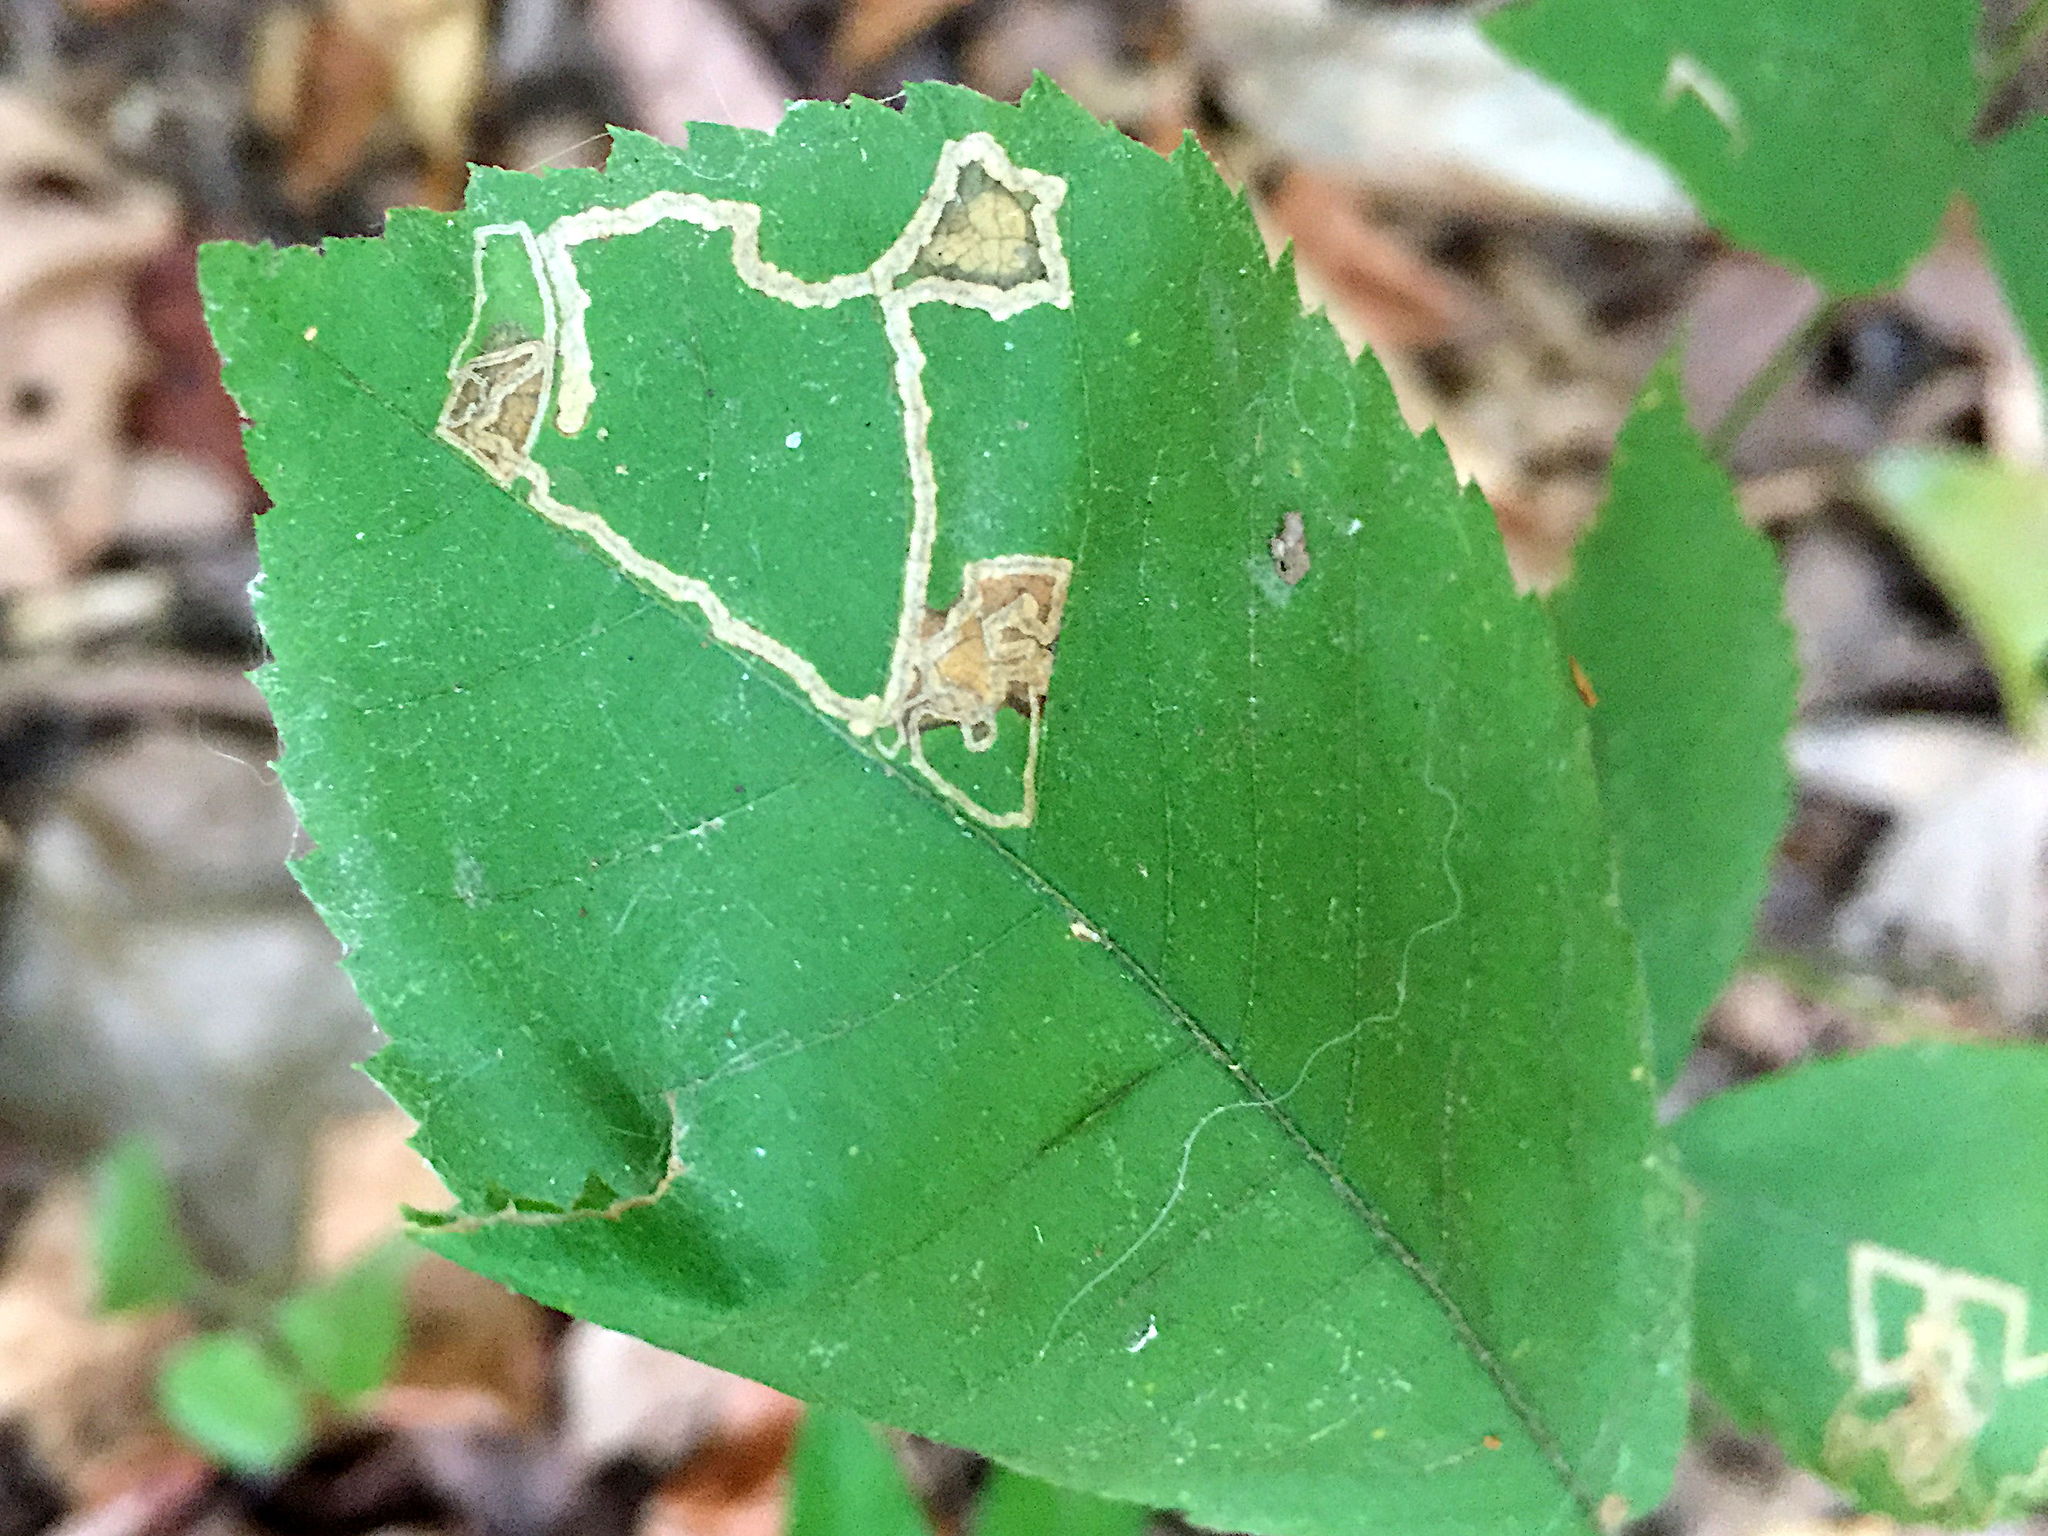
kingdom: Animalia
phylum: Arthropoda
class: Insecta
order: Lepidoptera
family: Nepticulidae
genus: Stigmella
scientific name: Stigmella caryaefoliella
